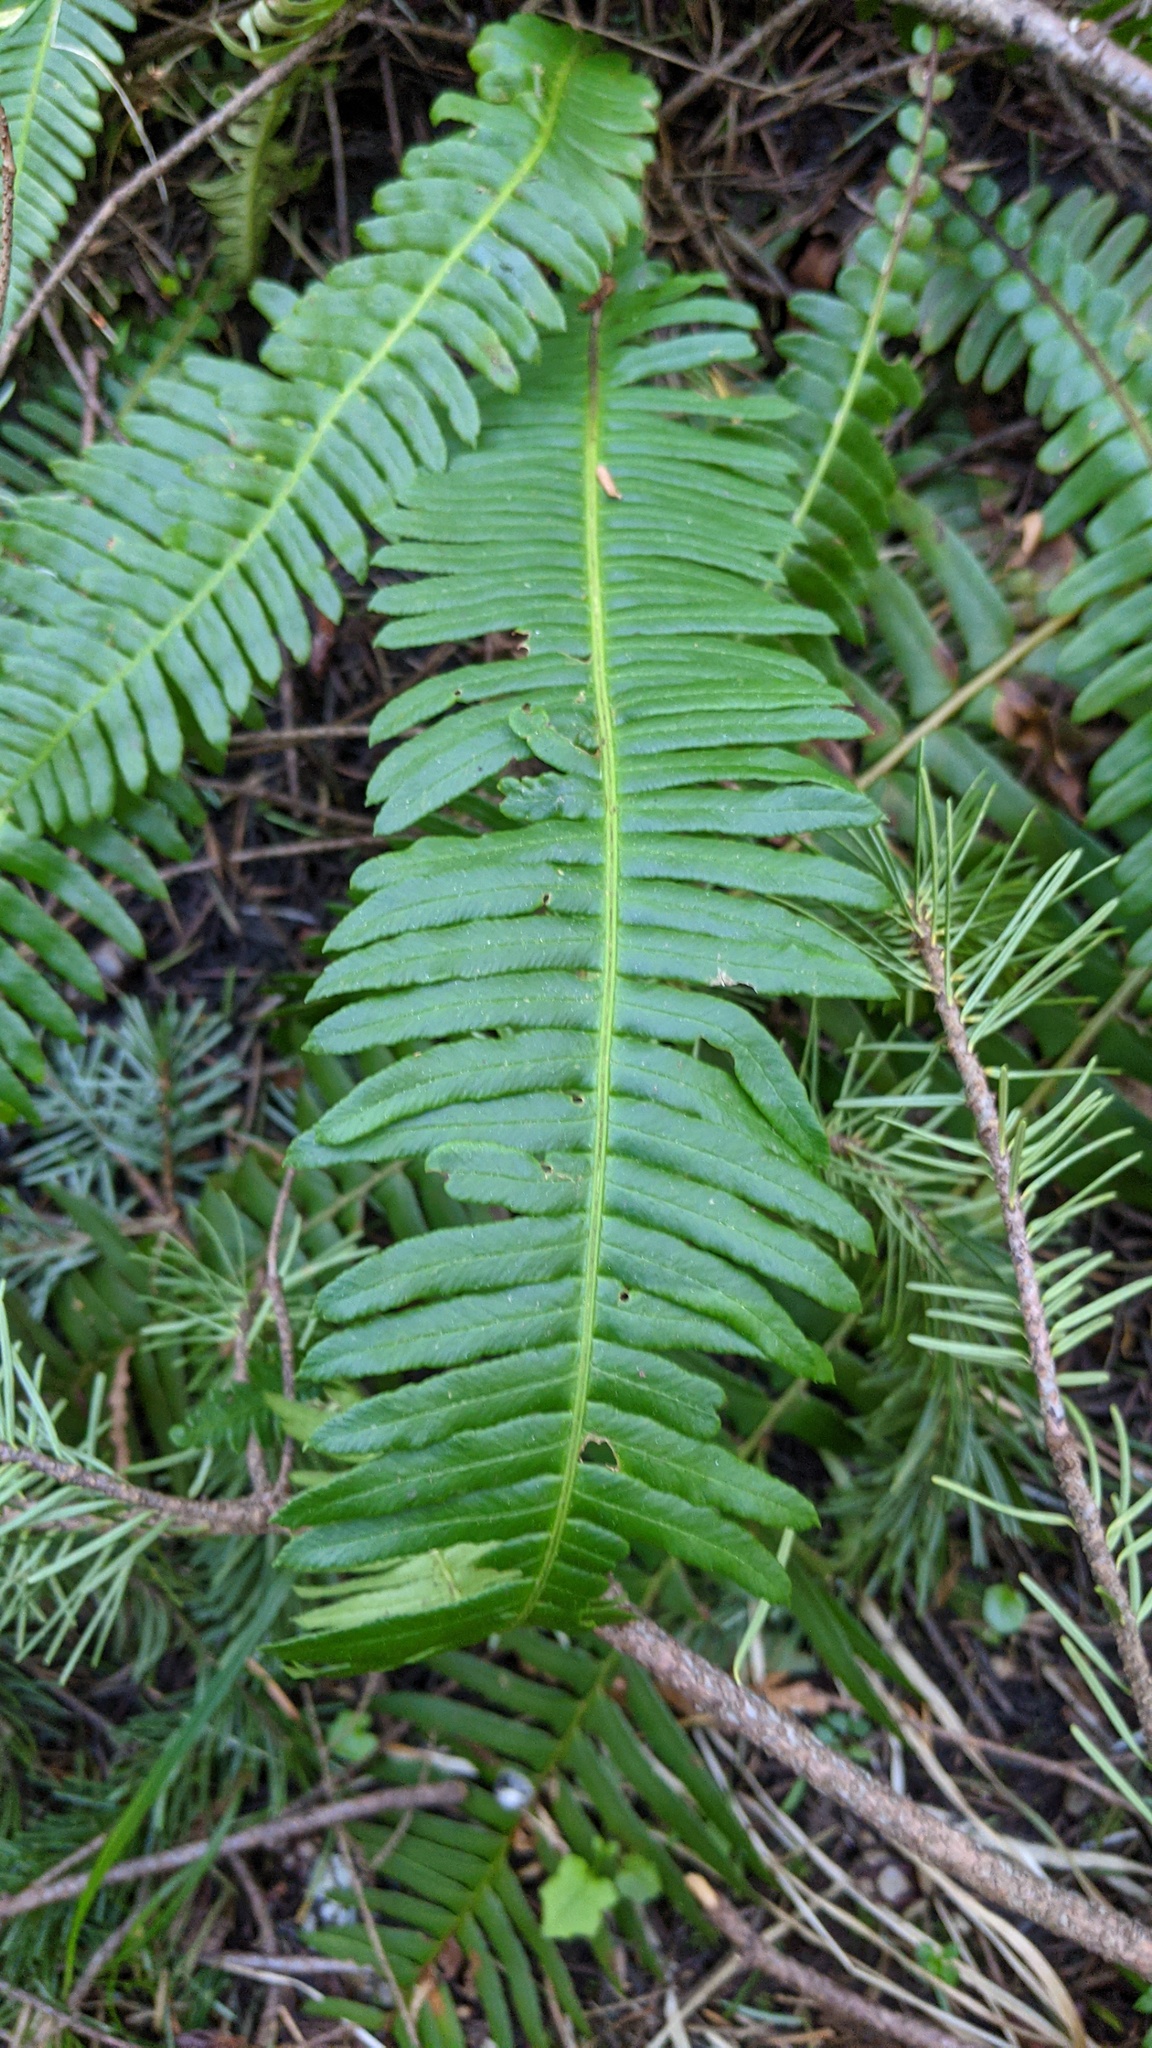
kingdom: Plantae
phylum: Tracheophyta
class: Polypodiopsida
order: Polypodiales
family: Blechnaceae
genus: Struthiopteris
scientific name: Struthiopteris spicant
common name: Deer fern
